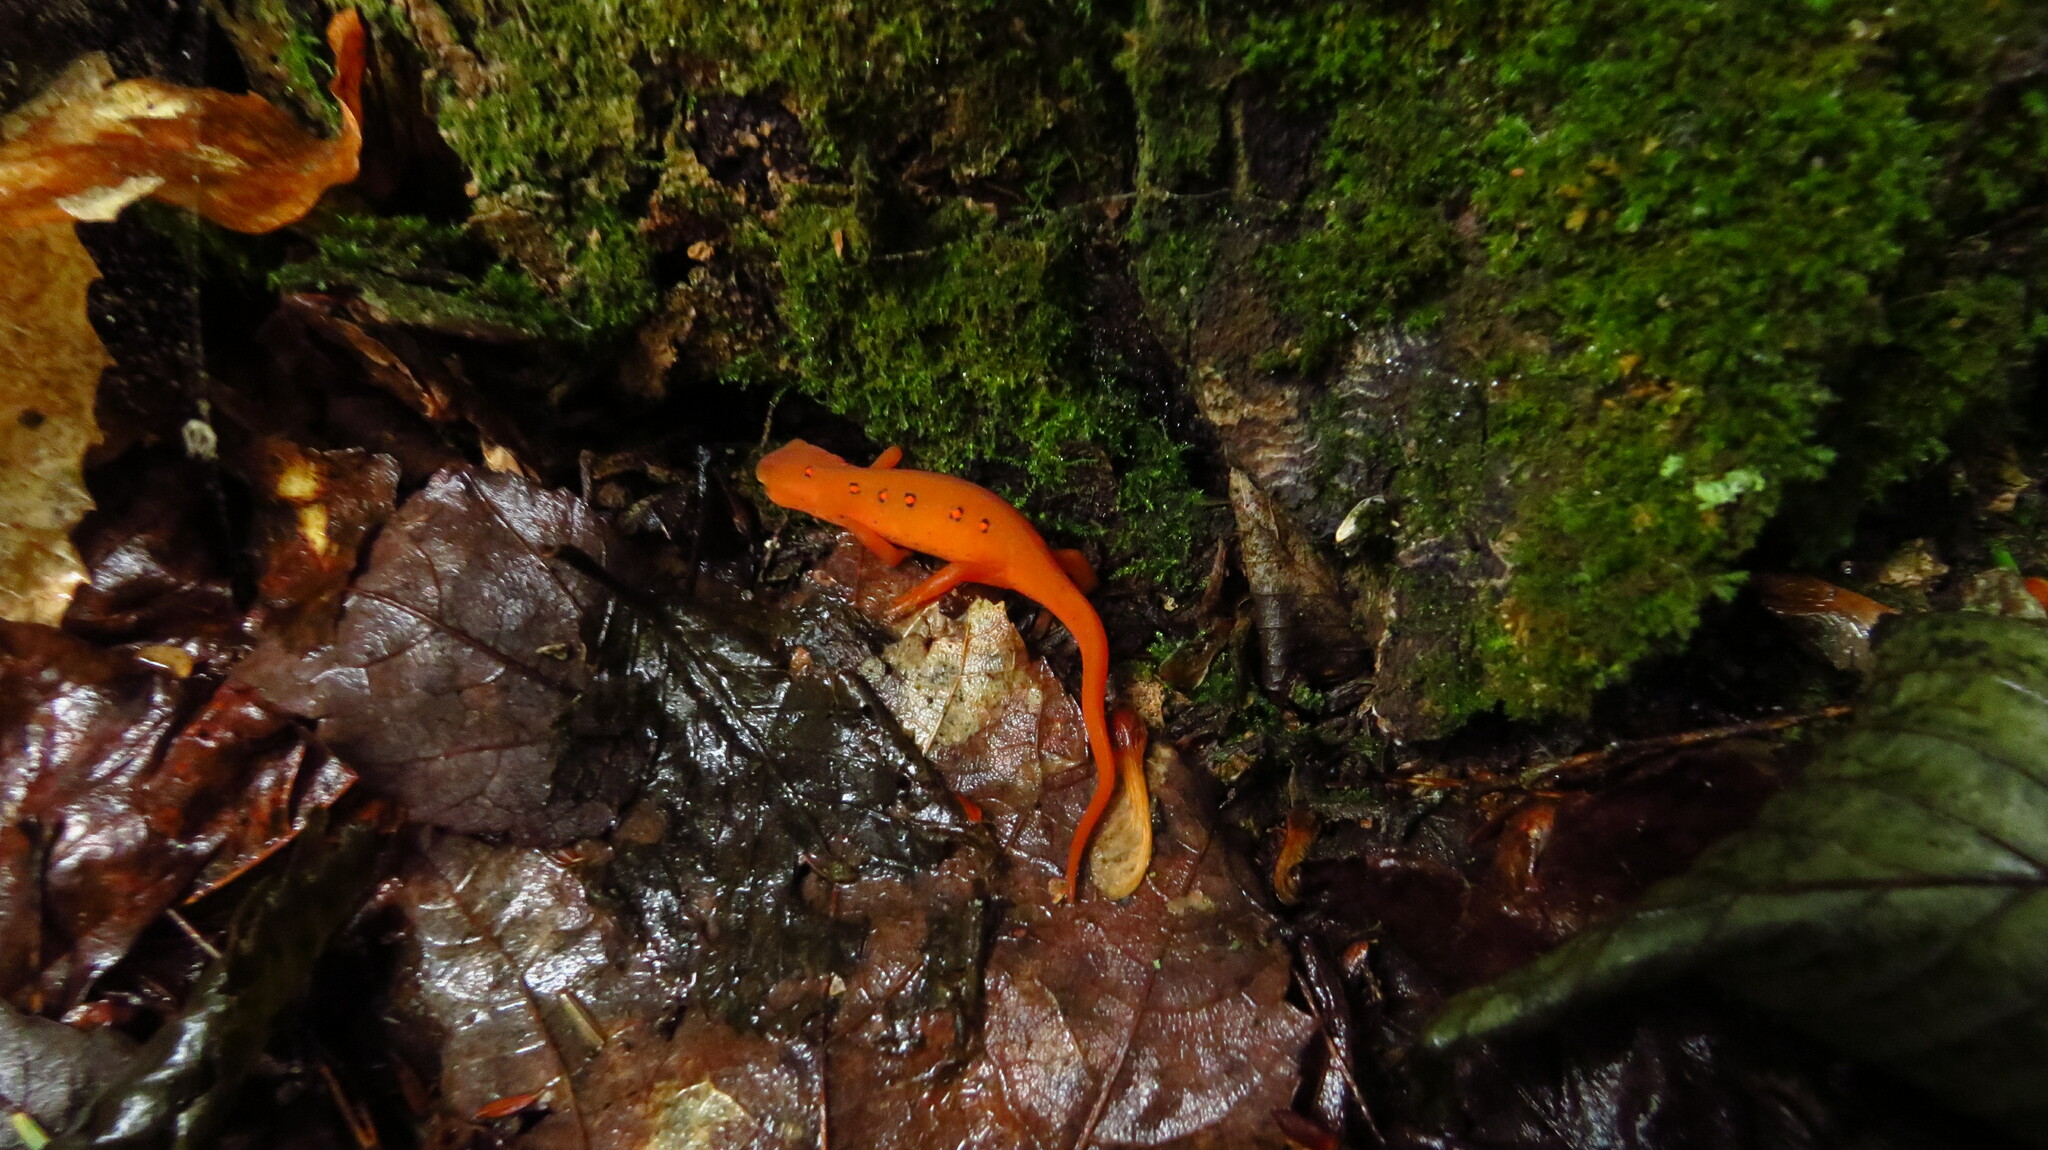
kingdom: Animalia
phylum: Chordata
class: Amphibia
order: Caudata
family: Salamandridae
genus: Notophthalmus
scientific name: Notophthalmus viridescens
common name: Eastern newt
